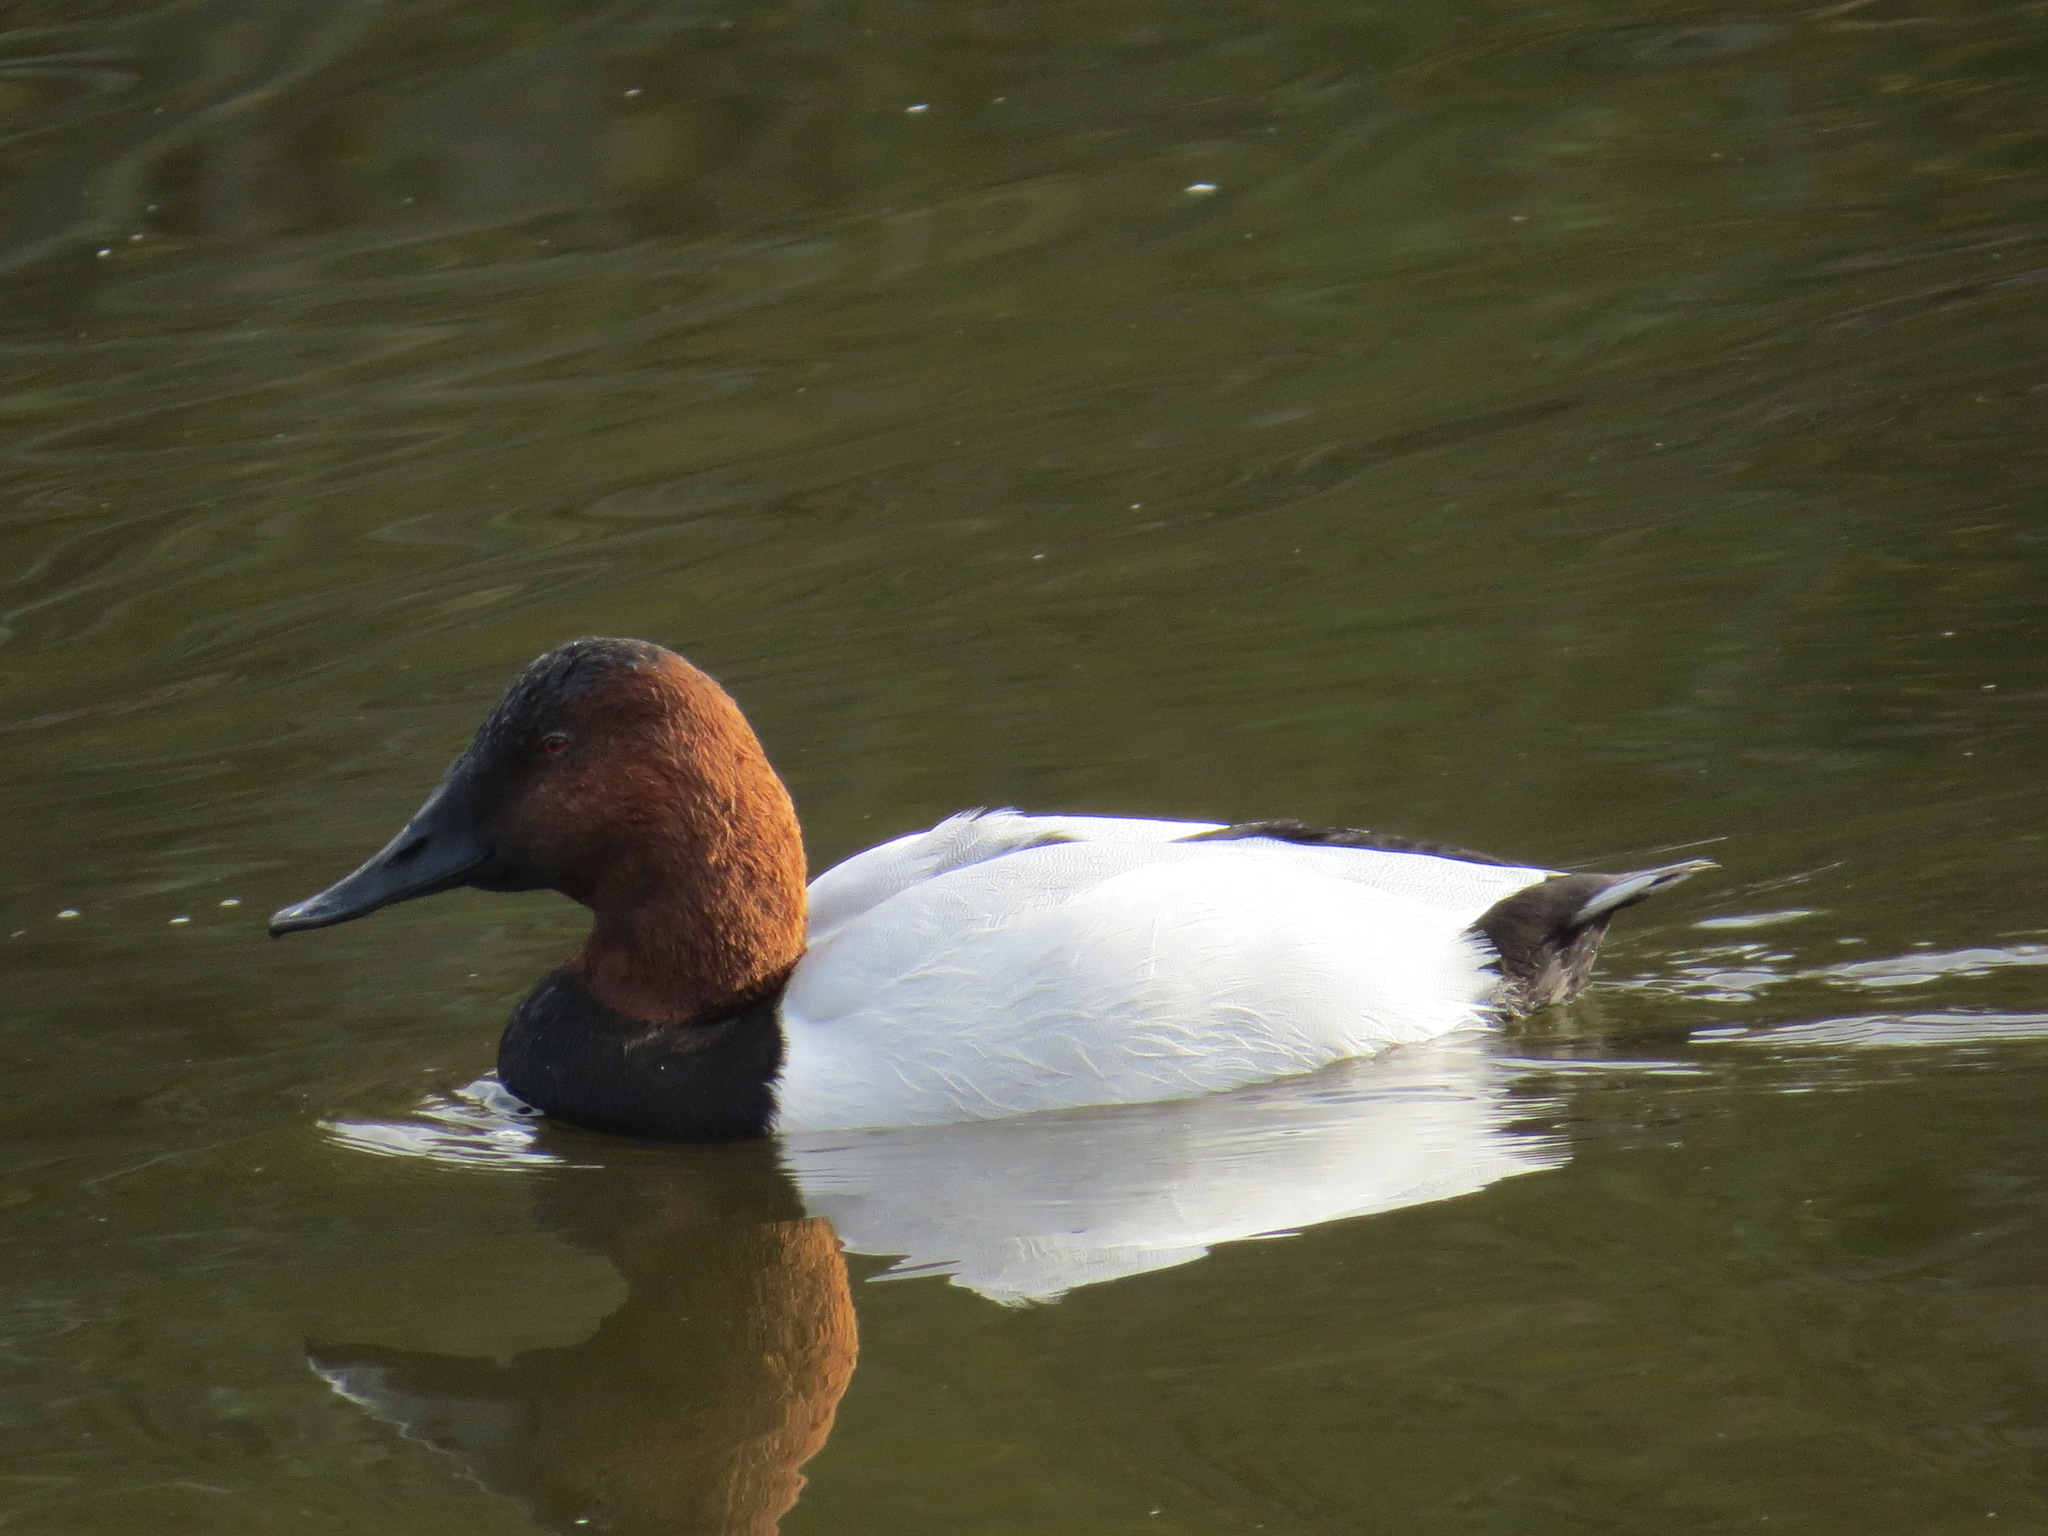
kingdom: Animalia
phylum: Chordata
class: Aves
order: Anseriformes
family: Anatidae
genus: Aythya
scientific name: Aythya valisineria
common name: Canvasback
